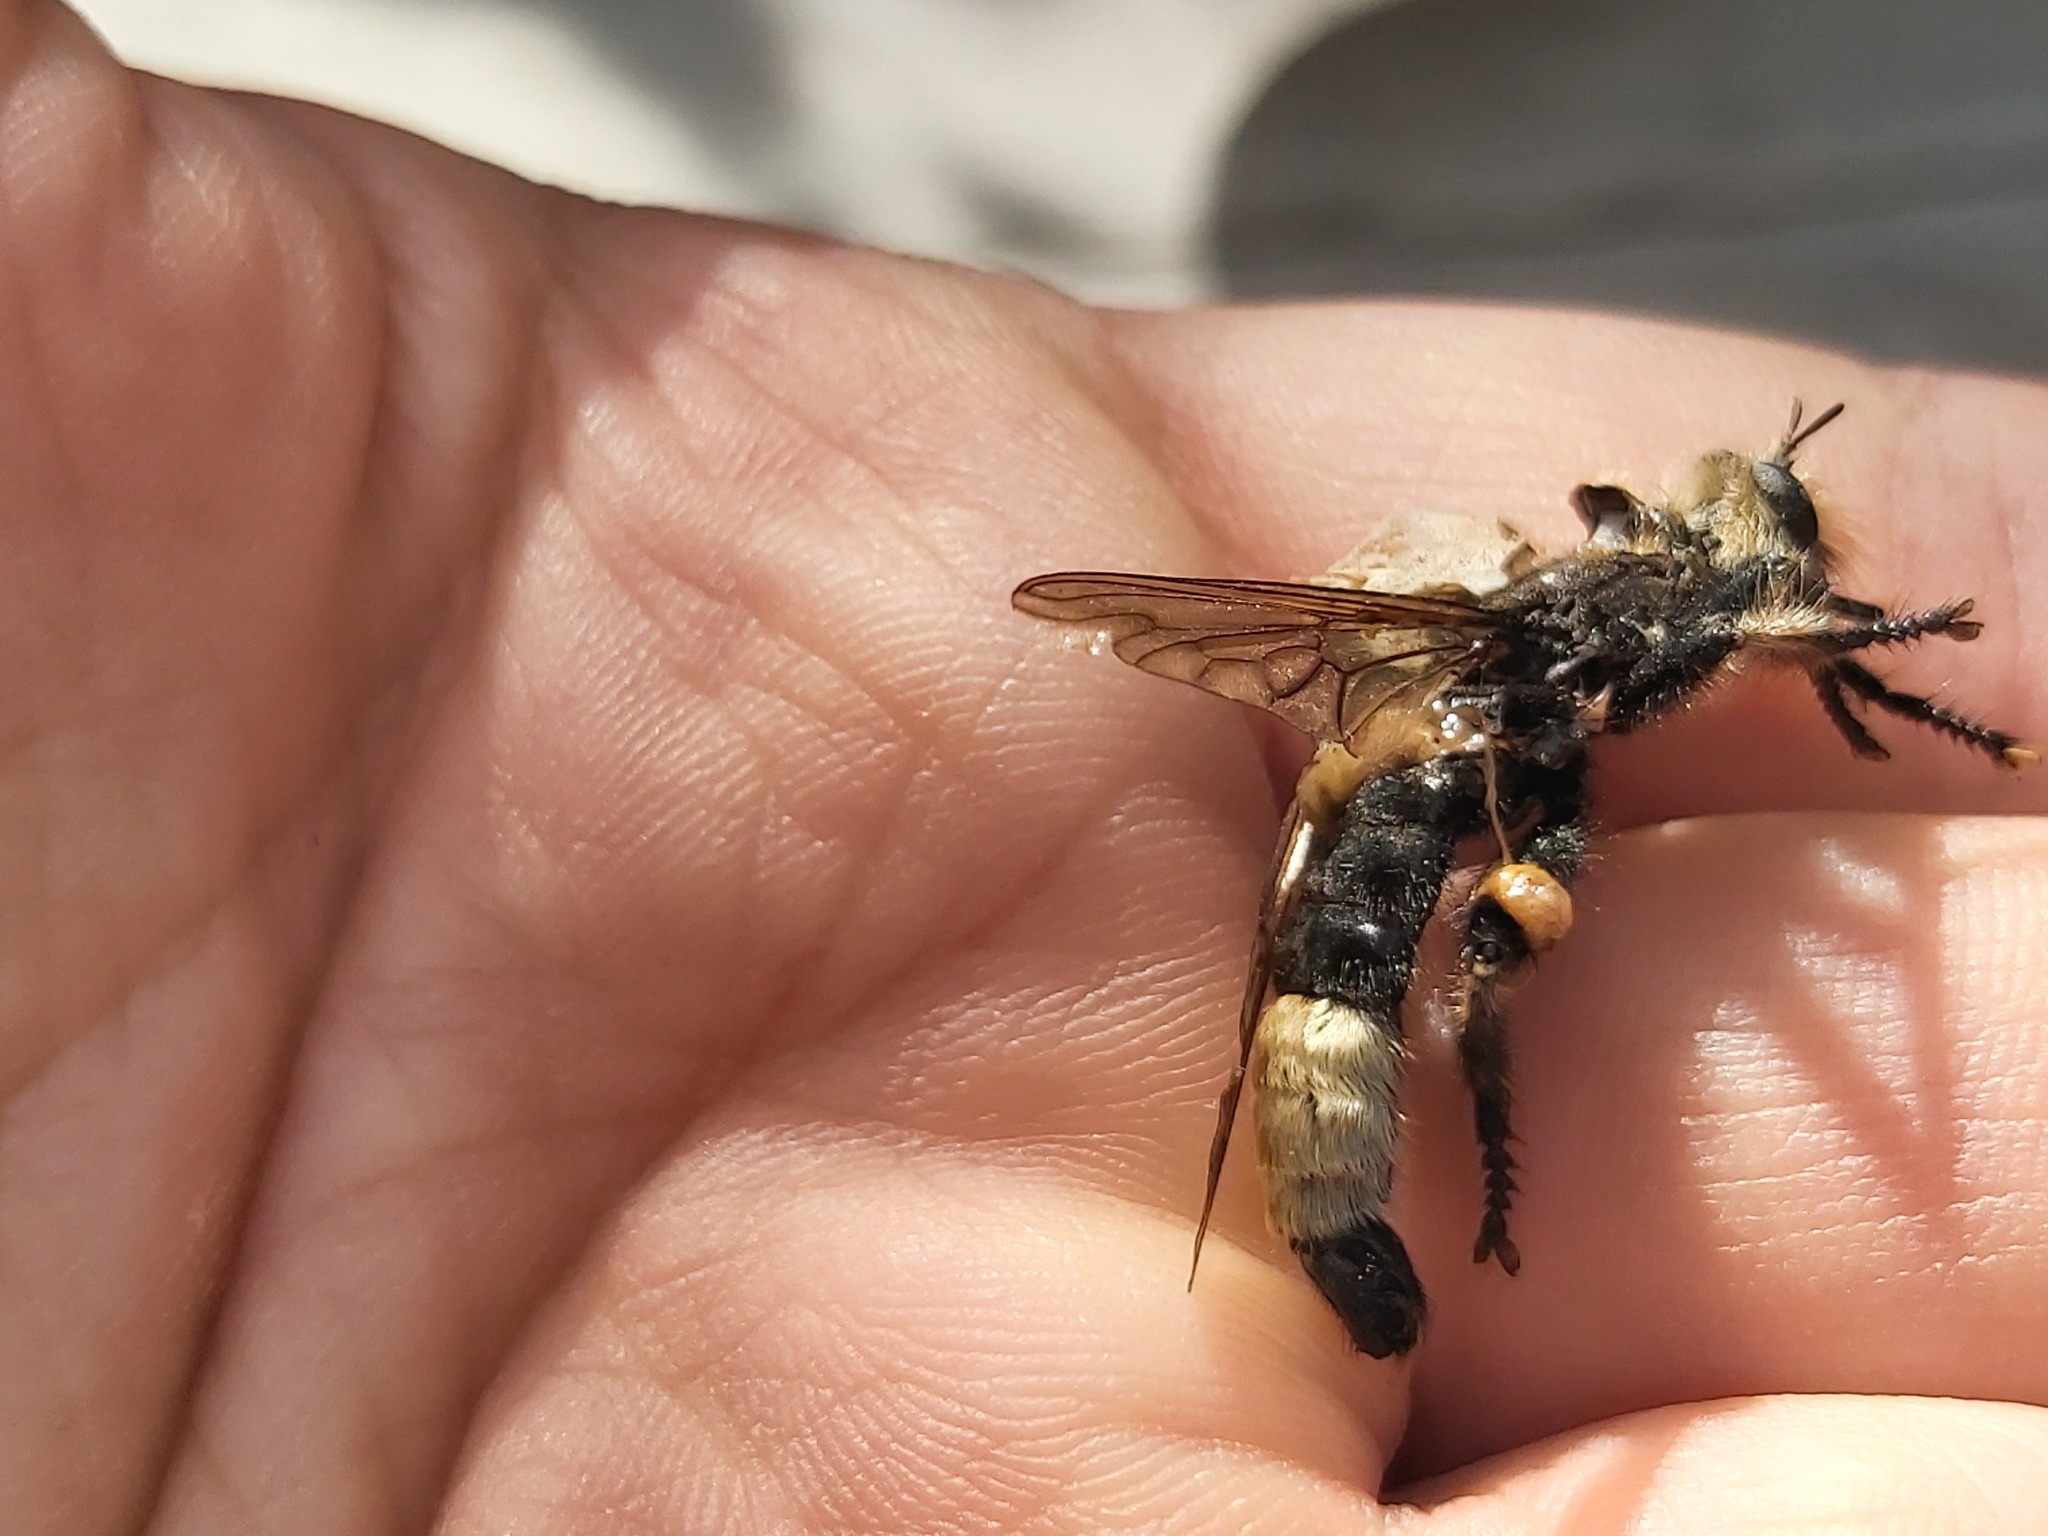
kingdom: Animalia
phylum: Arthropoda
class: Insecta
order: Diptera
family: Asilidae
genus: Laphria
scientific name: Laphria gibbosa
